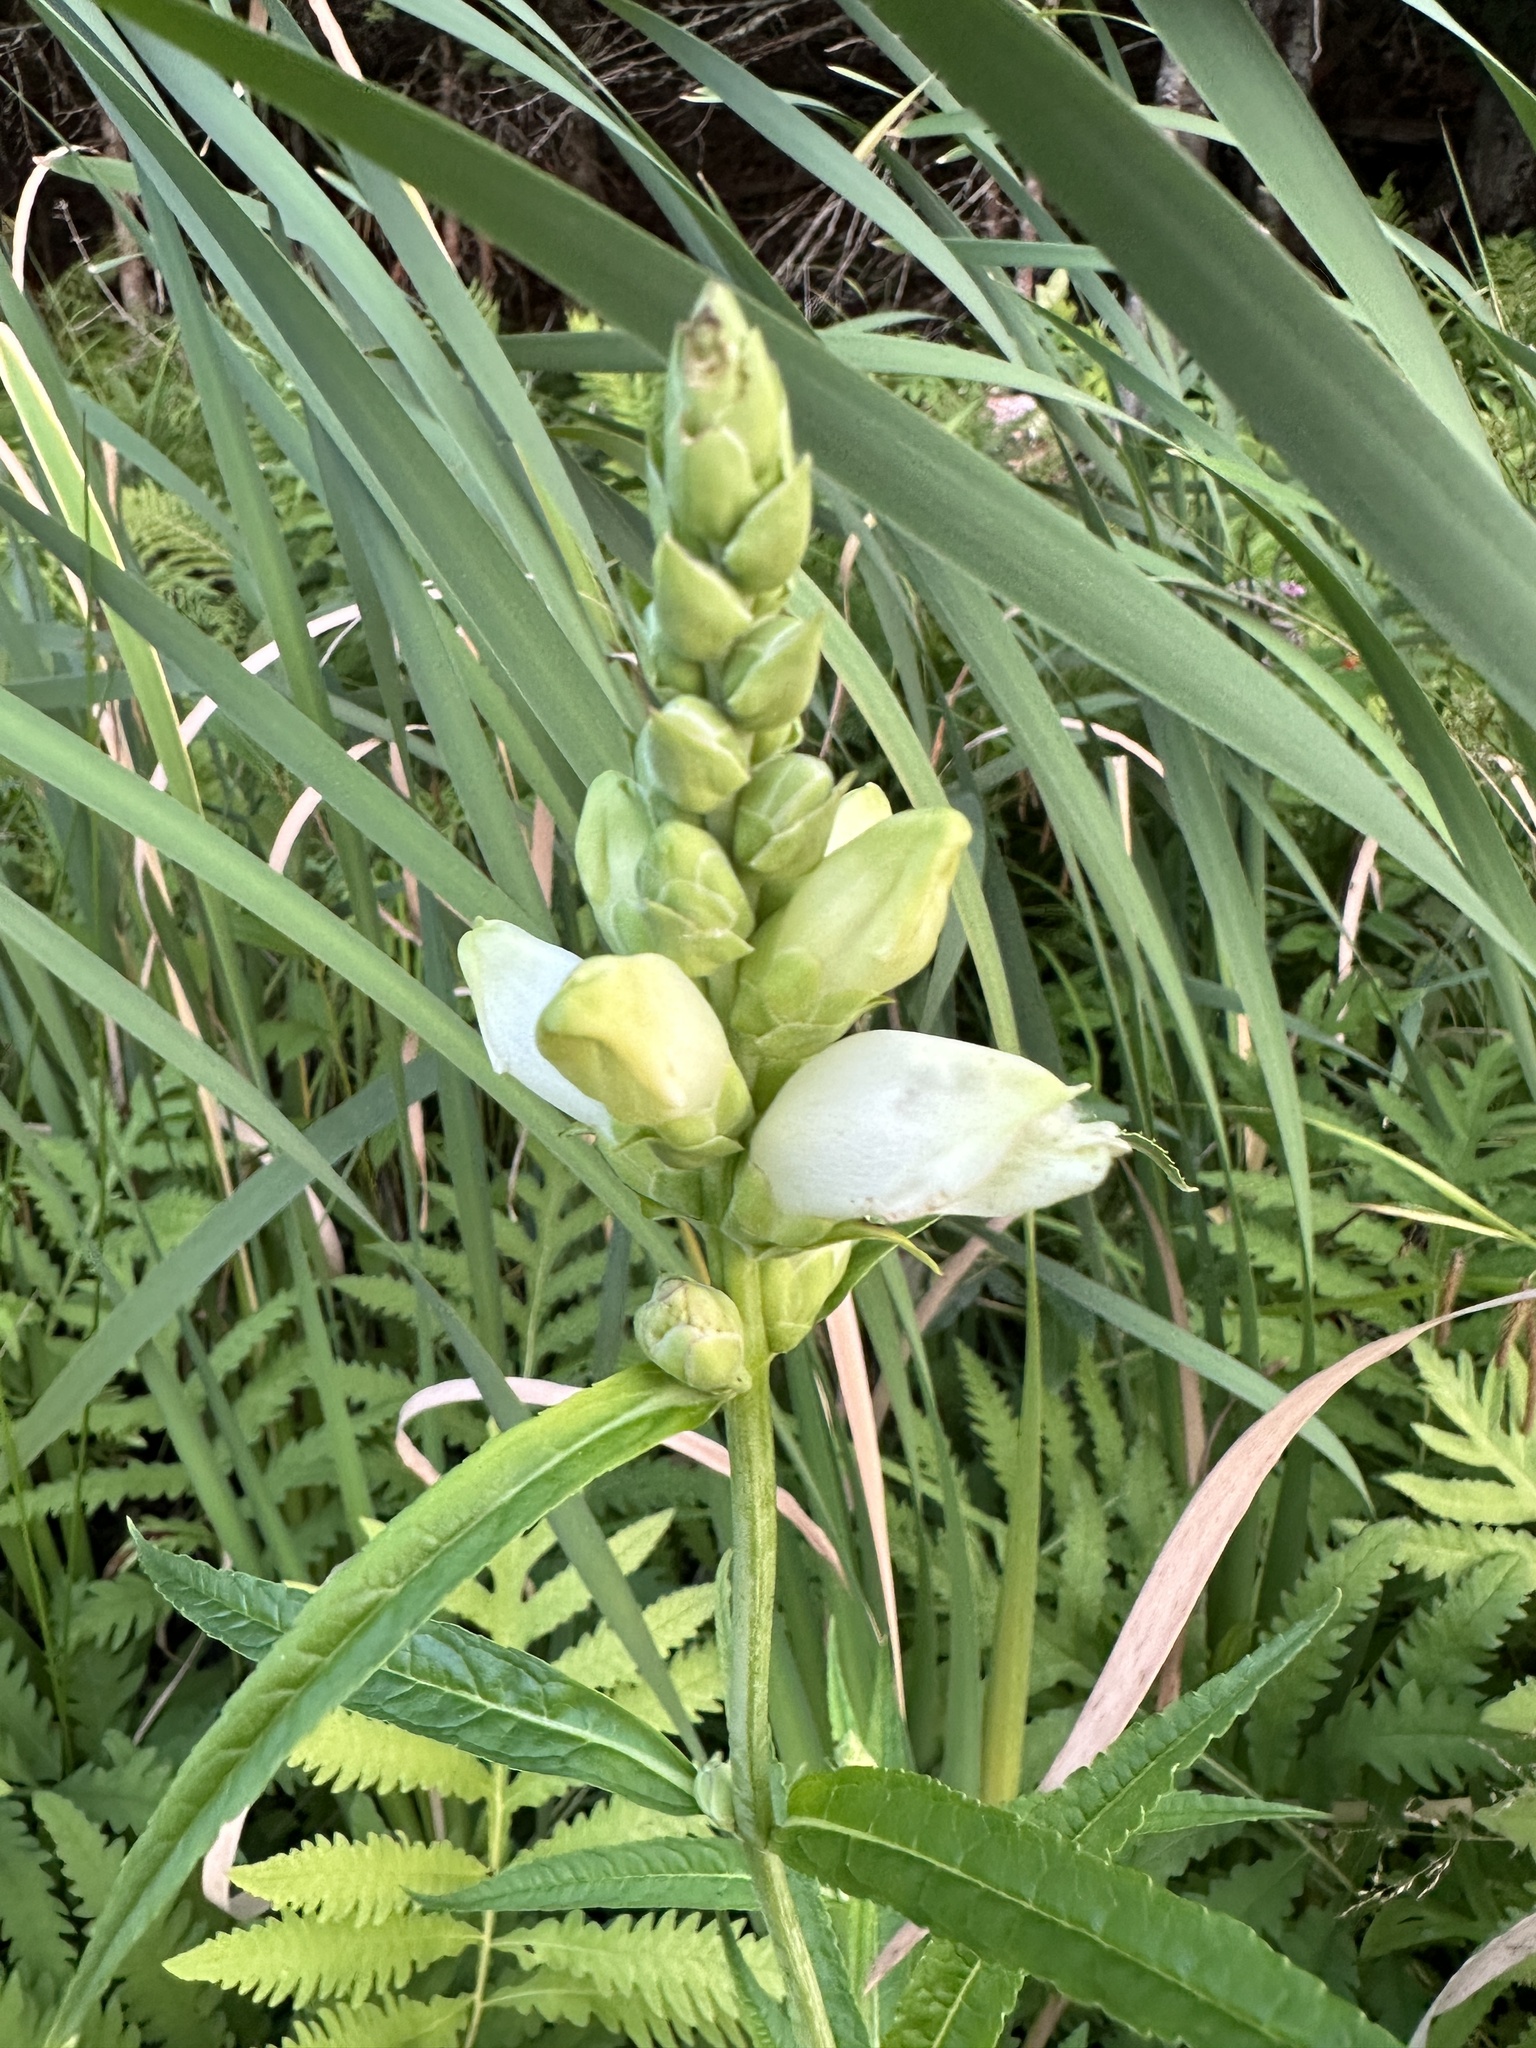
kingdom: Plantae
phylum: Tracheophyta
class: Magnoliopsida
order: Lamiales
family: Plantaginaceae
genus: Chelone
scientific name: Chelone glabra
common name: Snakehead
